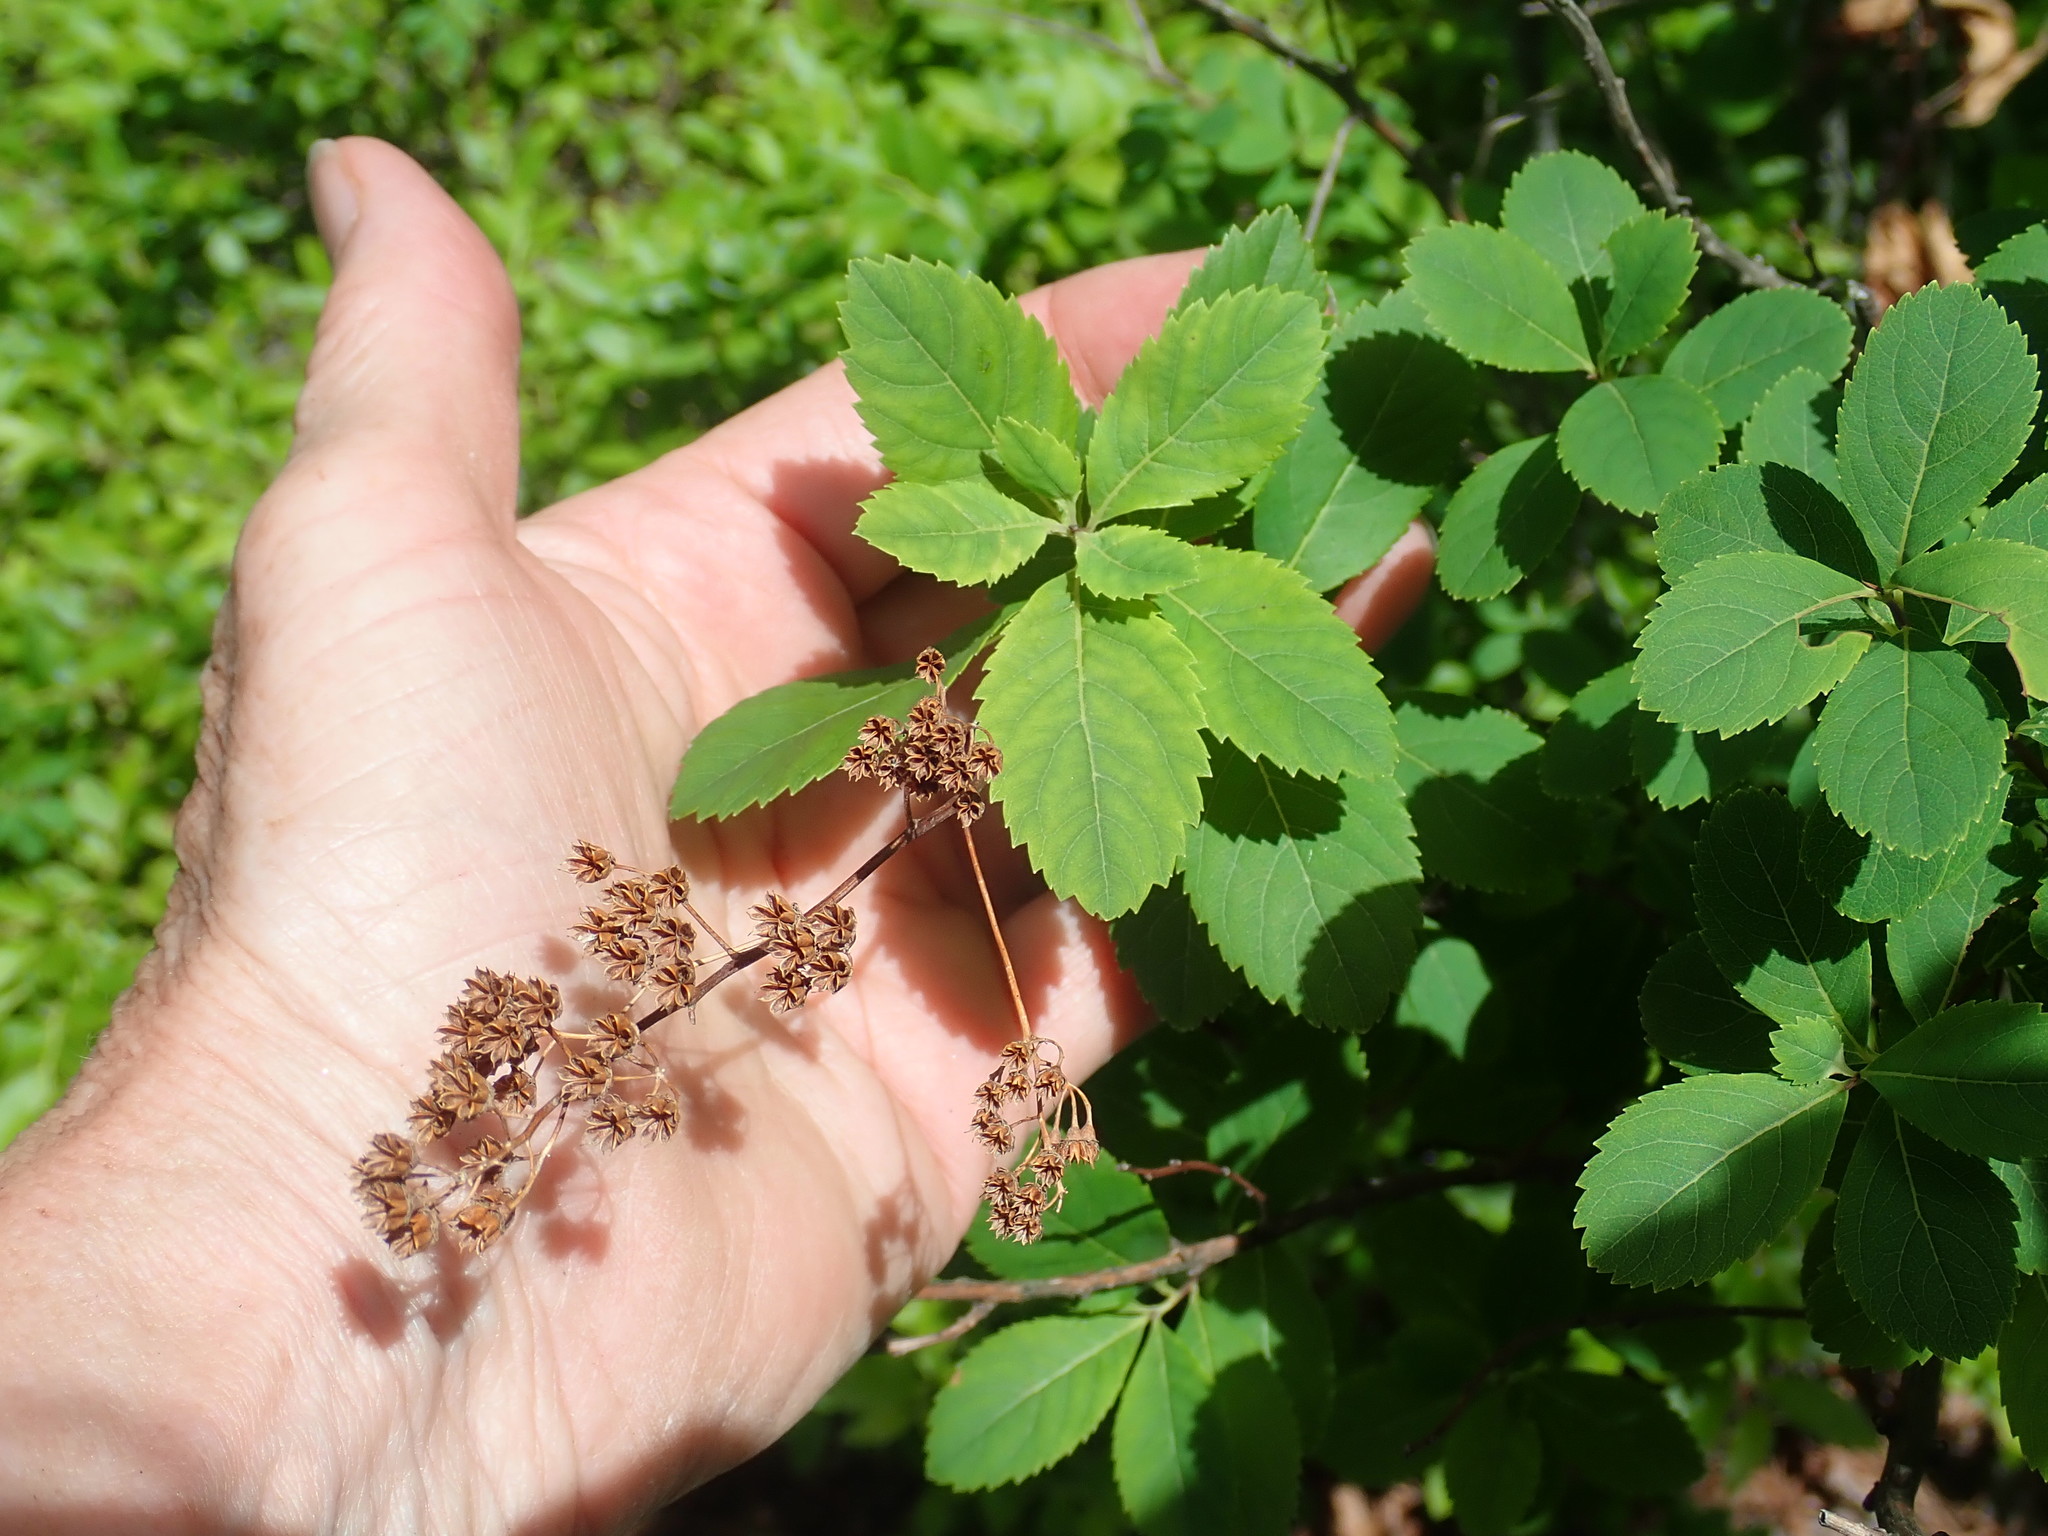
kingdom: Plantae
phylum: Tracheophyta
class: Magnoliopsida
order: Rosales
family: Rosaceae
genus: Spiraea
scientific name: Spiraea alba
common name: Pale bridewort
